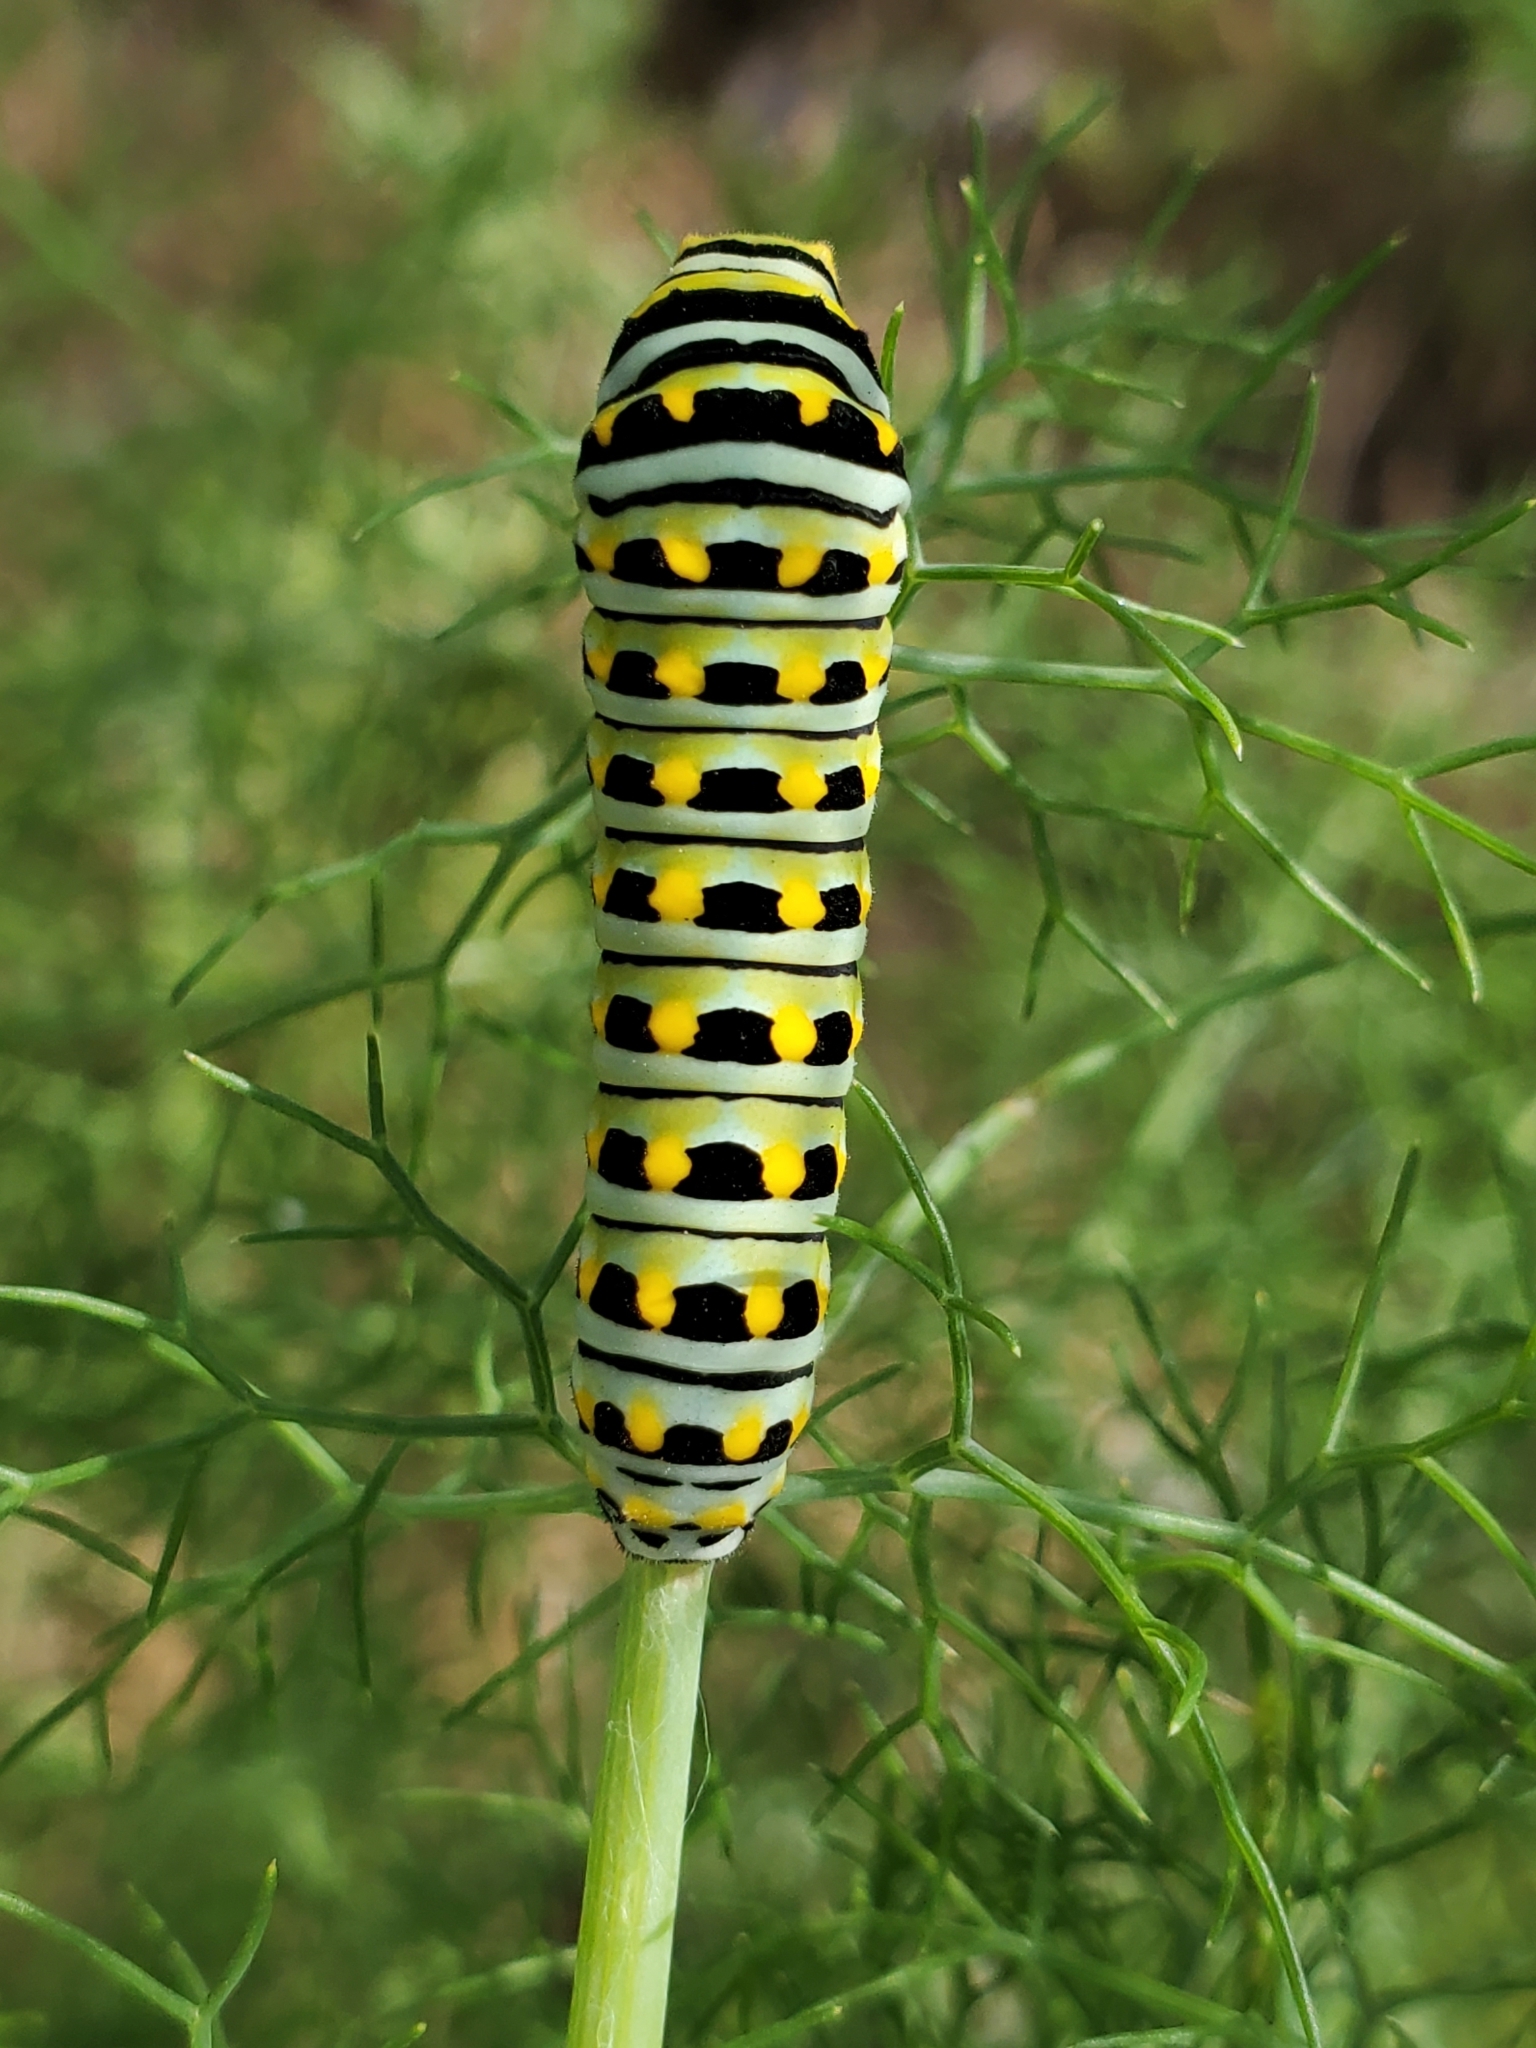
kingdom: Animalia
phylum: Arthropoda
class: Insecta
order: Lepidoptera
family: Papilionidae
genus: Papilio
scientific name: Papilio zelicaon
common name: Anise swallowtail
